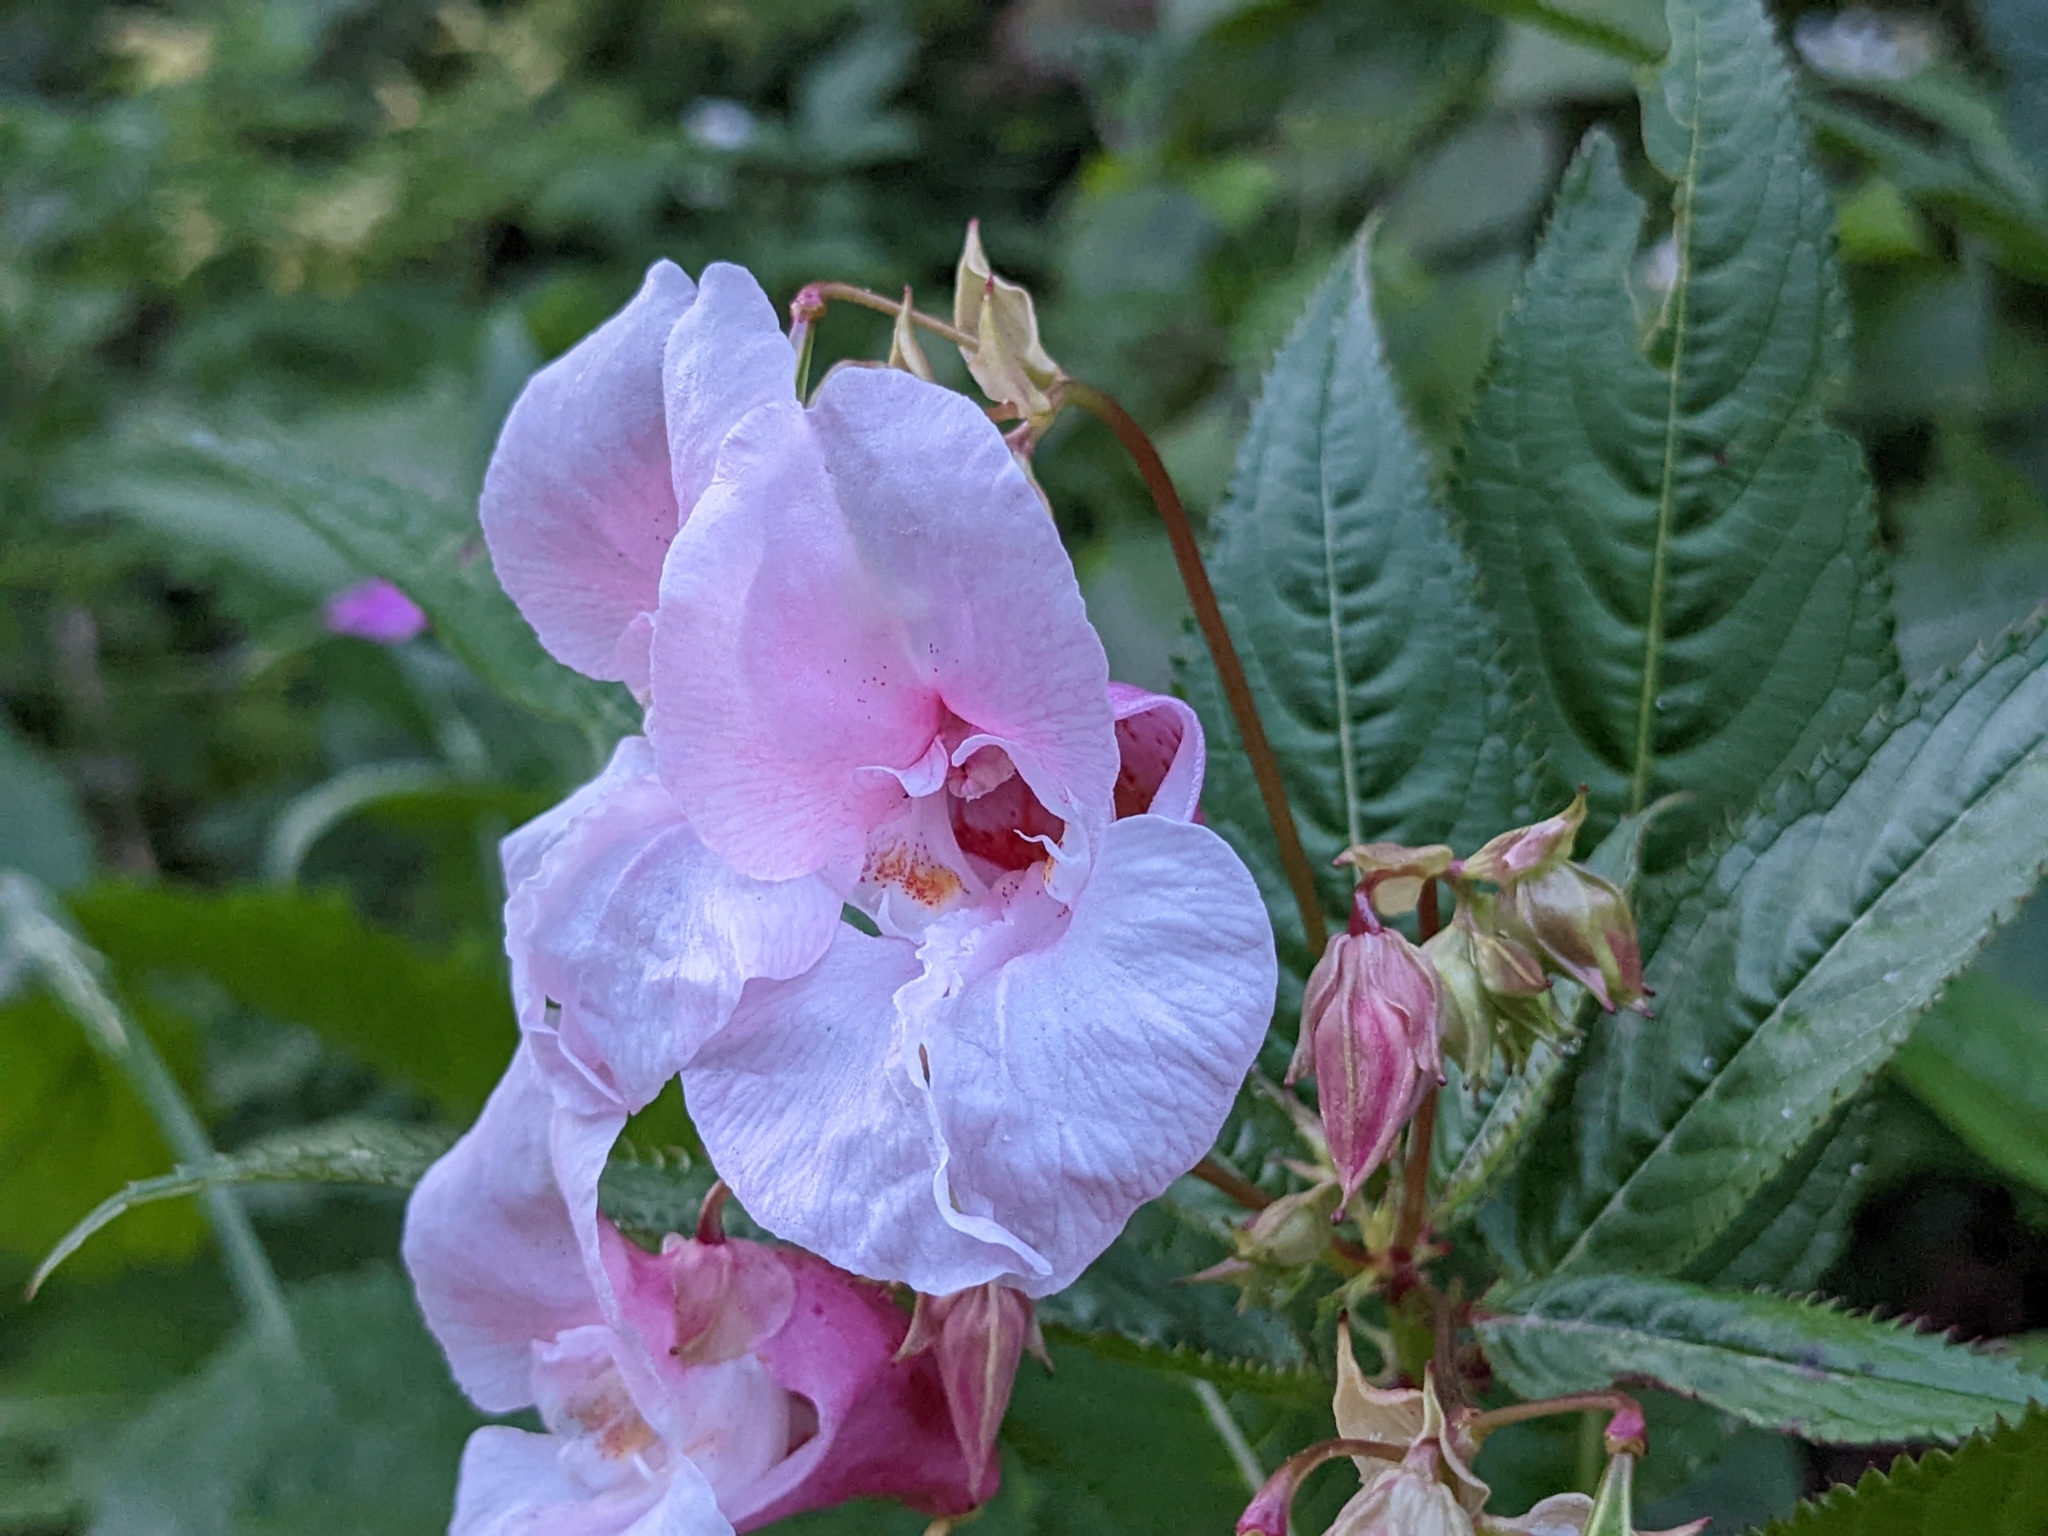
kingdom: Plantae
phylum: Tracheophyta
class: Magnoliopsida
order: Ericales
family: Balsaminaceae
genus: Impatiens
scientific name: Impatiens glandulifera
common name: Himalayan balsam
